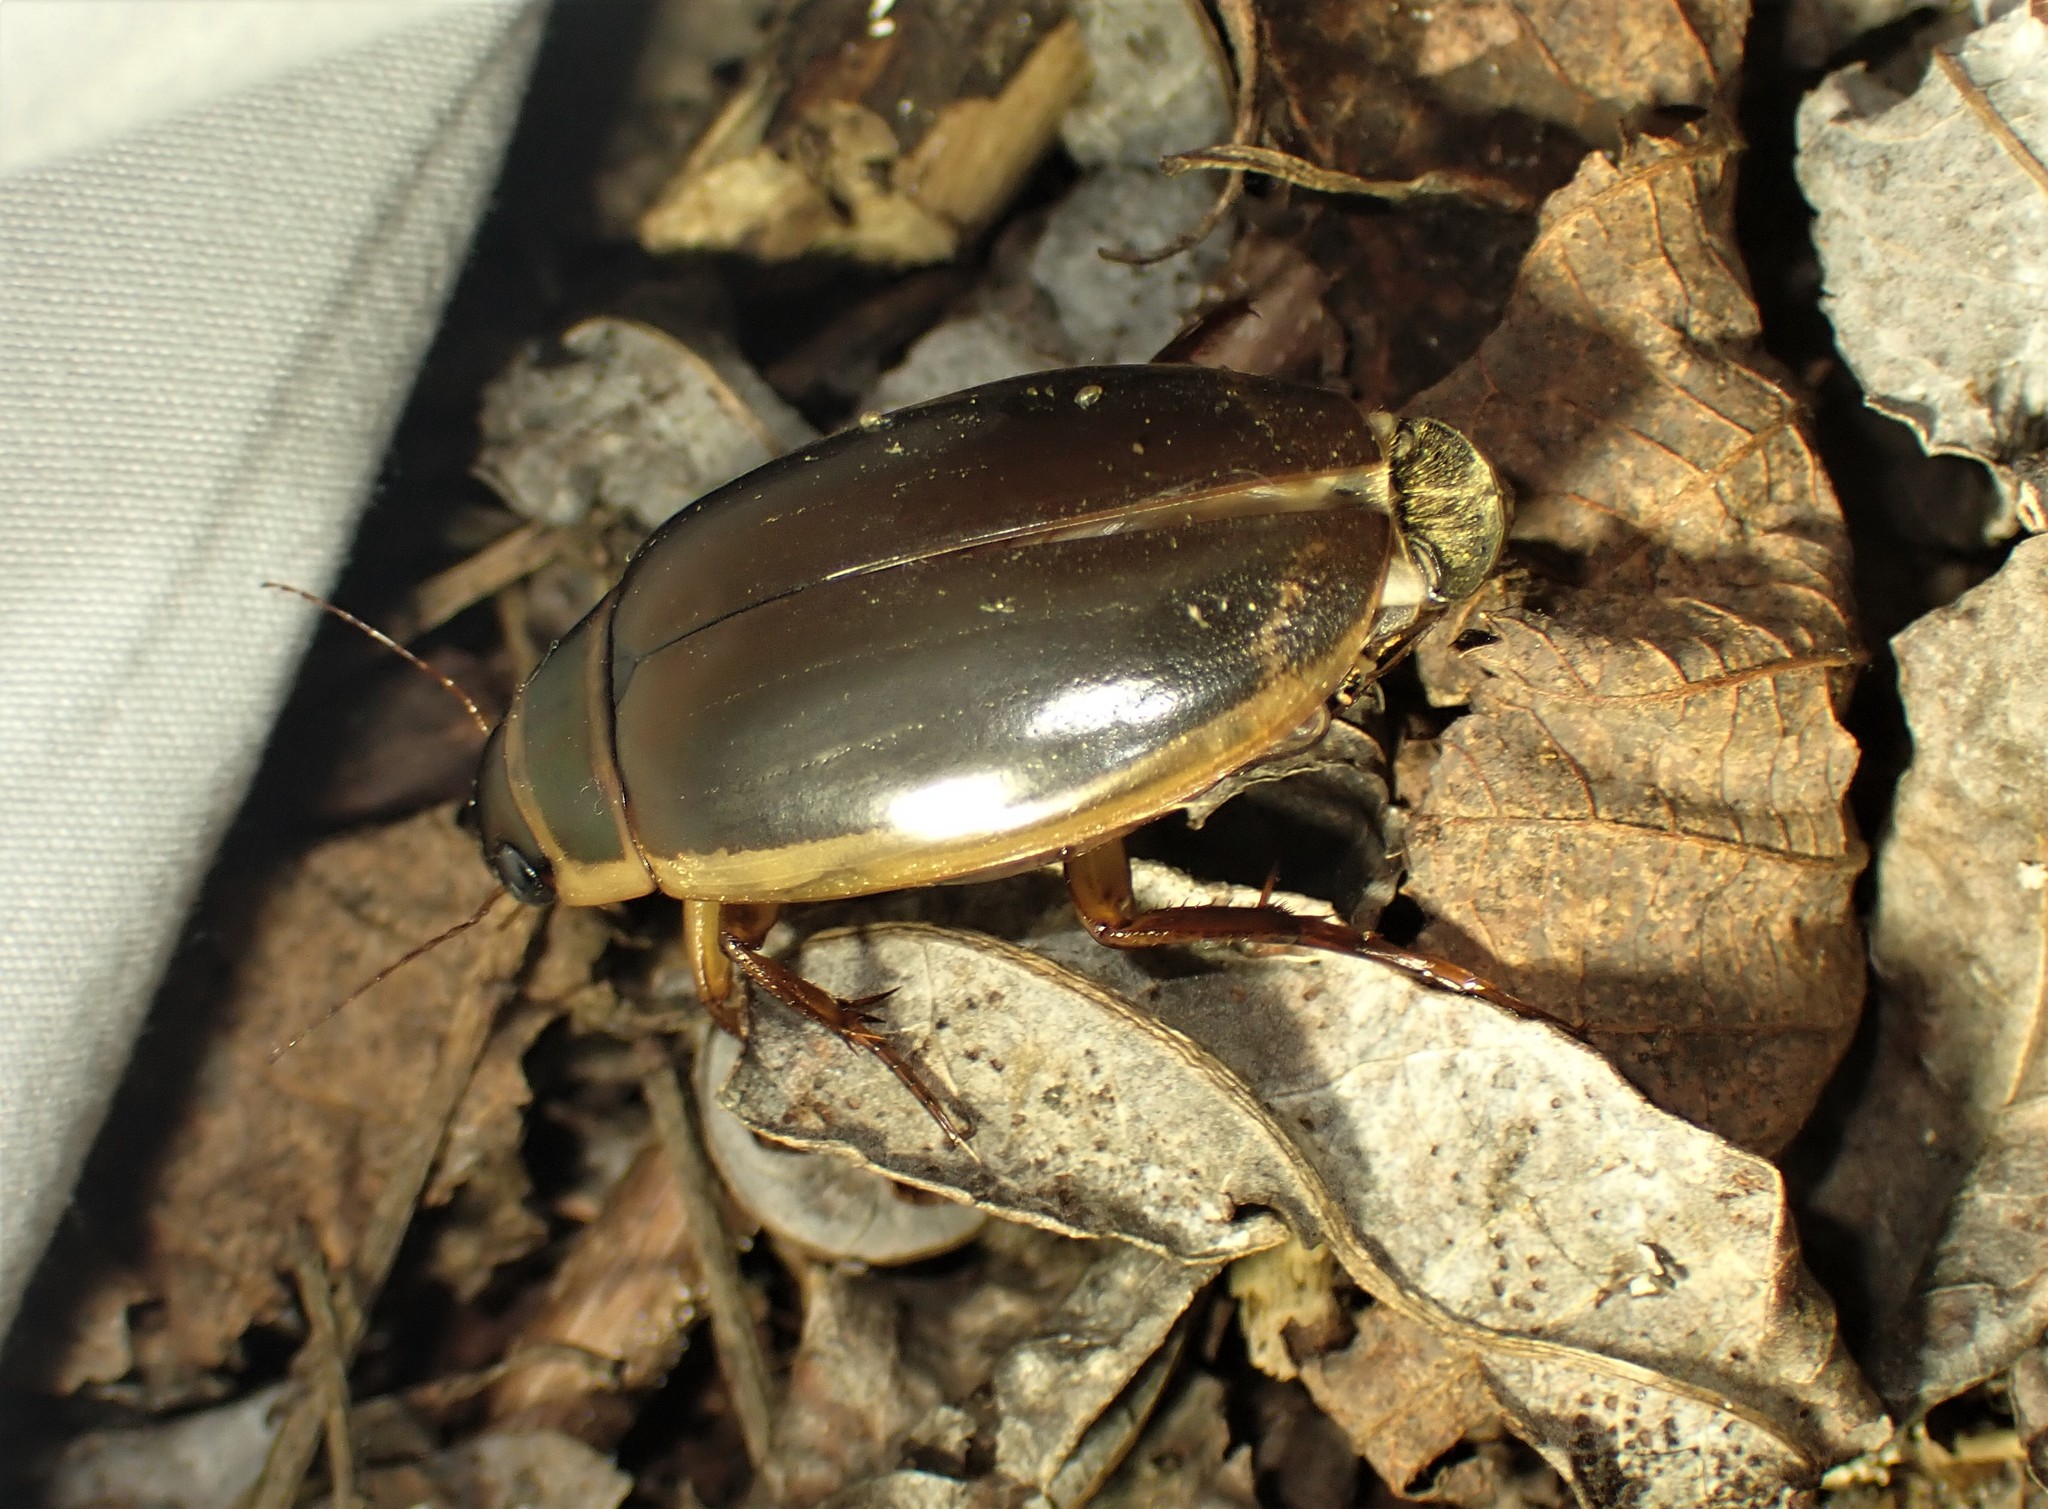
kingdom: Animalia
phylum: Arthropoda
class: Insecta
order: Coleoptera
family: Dytiscidae
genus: Dytiscus
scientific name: Dytiscus cordieri
